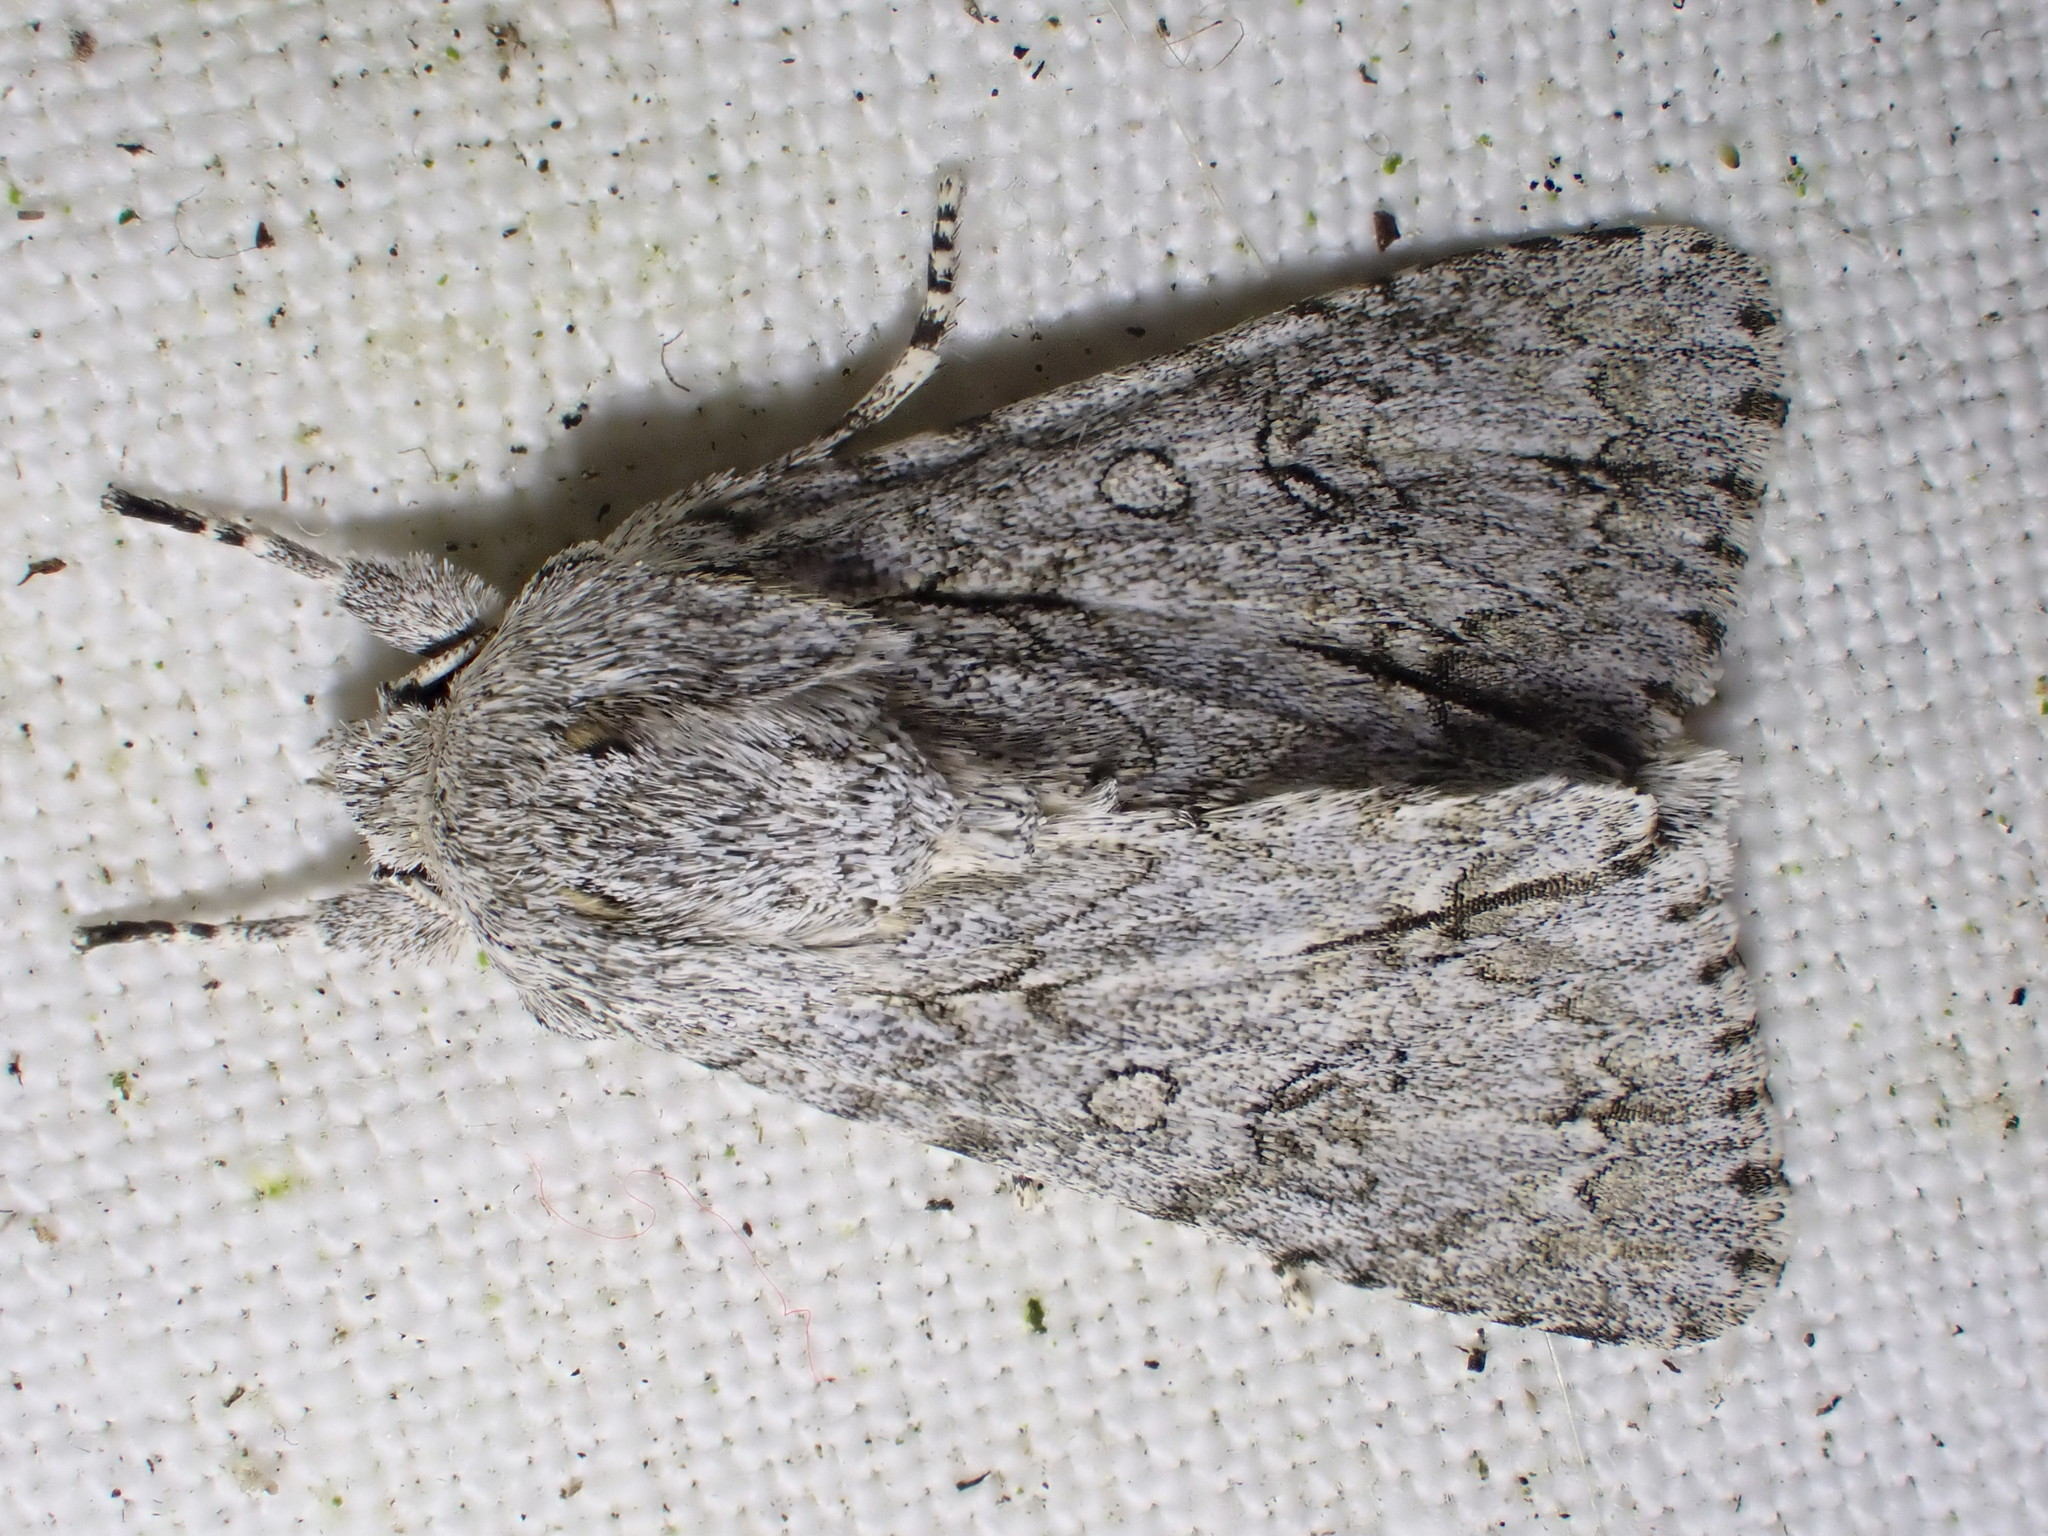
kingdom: Animalia
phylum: Arthropoda
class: Insecta
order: Lepidoptera
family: Noctuidae
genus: Acronicta
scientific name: Acronicta aceris
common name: Sycamore
